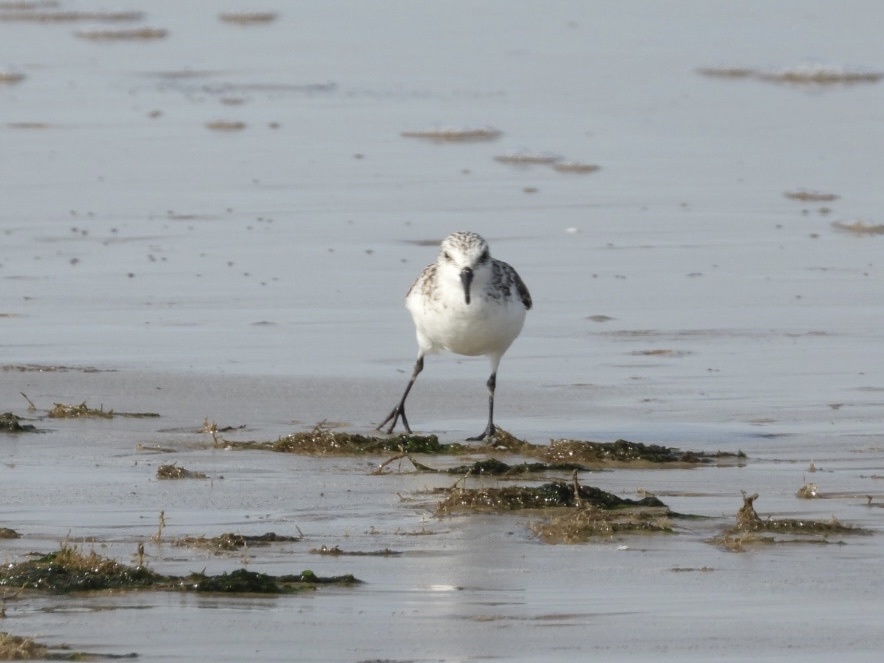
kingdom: Animalia
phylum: Chordata
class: Aves
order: Charadriiformes
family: Scolopacidae
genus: Calidris
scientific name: Calidris alba
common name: Sanderling
